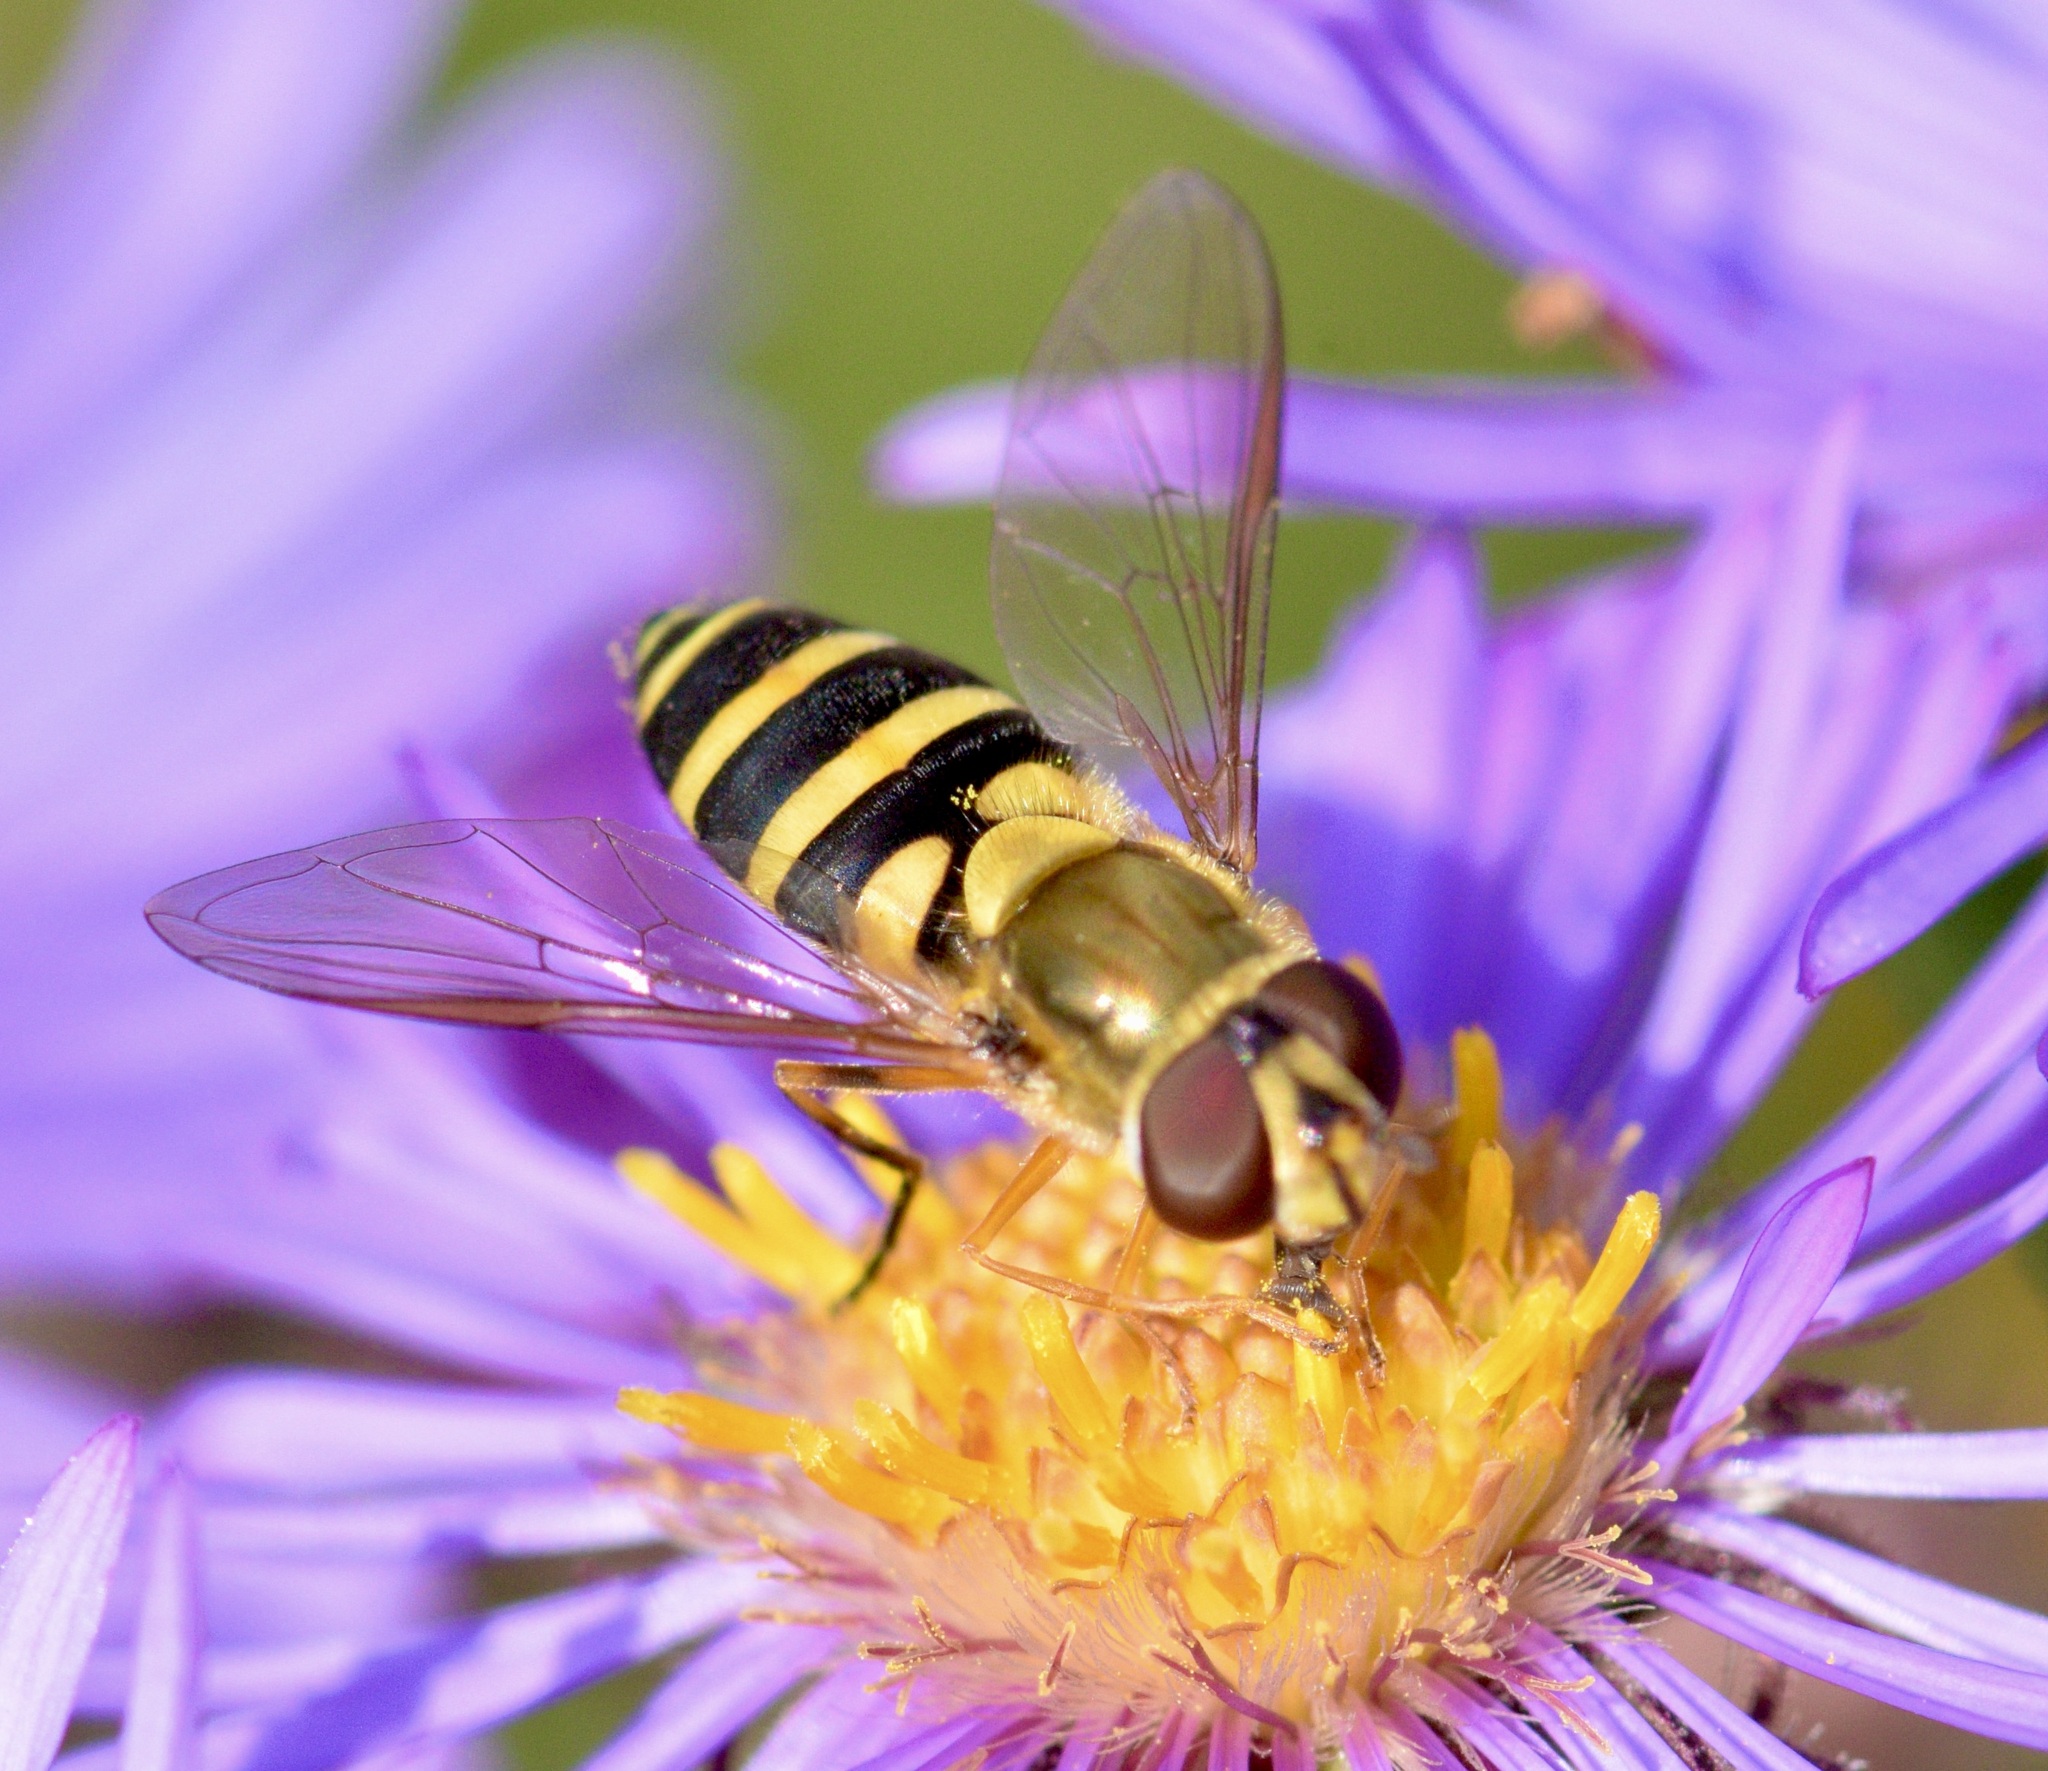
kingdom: Animalia
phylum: Arthropoda
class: Insecta
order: Diptera
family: Syrphidae
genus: Syrphus
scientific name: Syrphus rectus
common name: Yellow-legged flower fly
